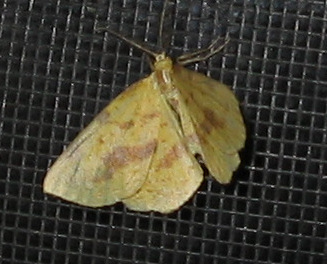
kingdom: Animalia
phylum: Arthropoda
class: Insecta
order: Lepidoptera
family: Geometridae
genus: Xanthotype
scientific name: Xanthotype
